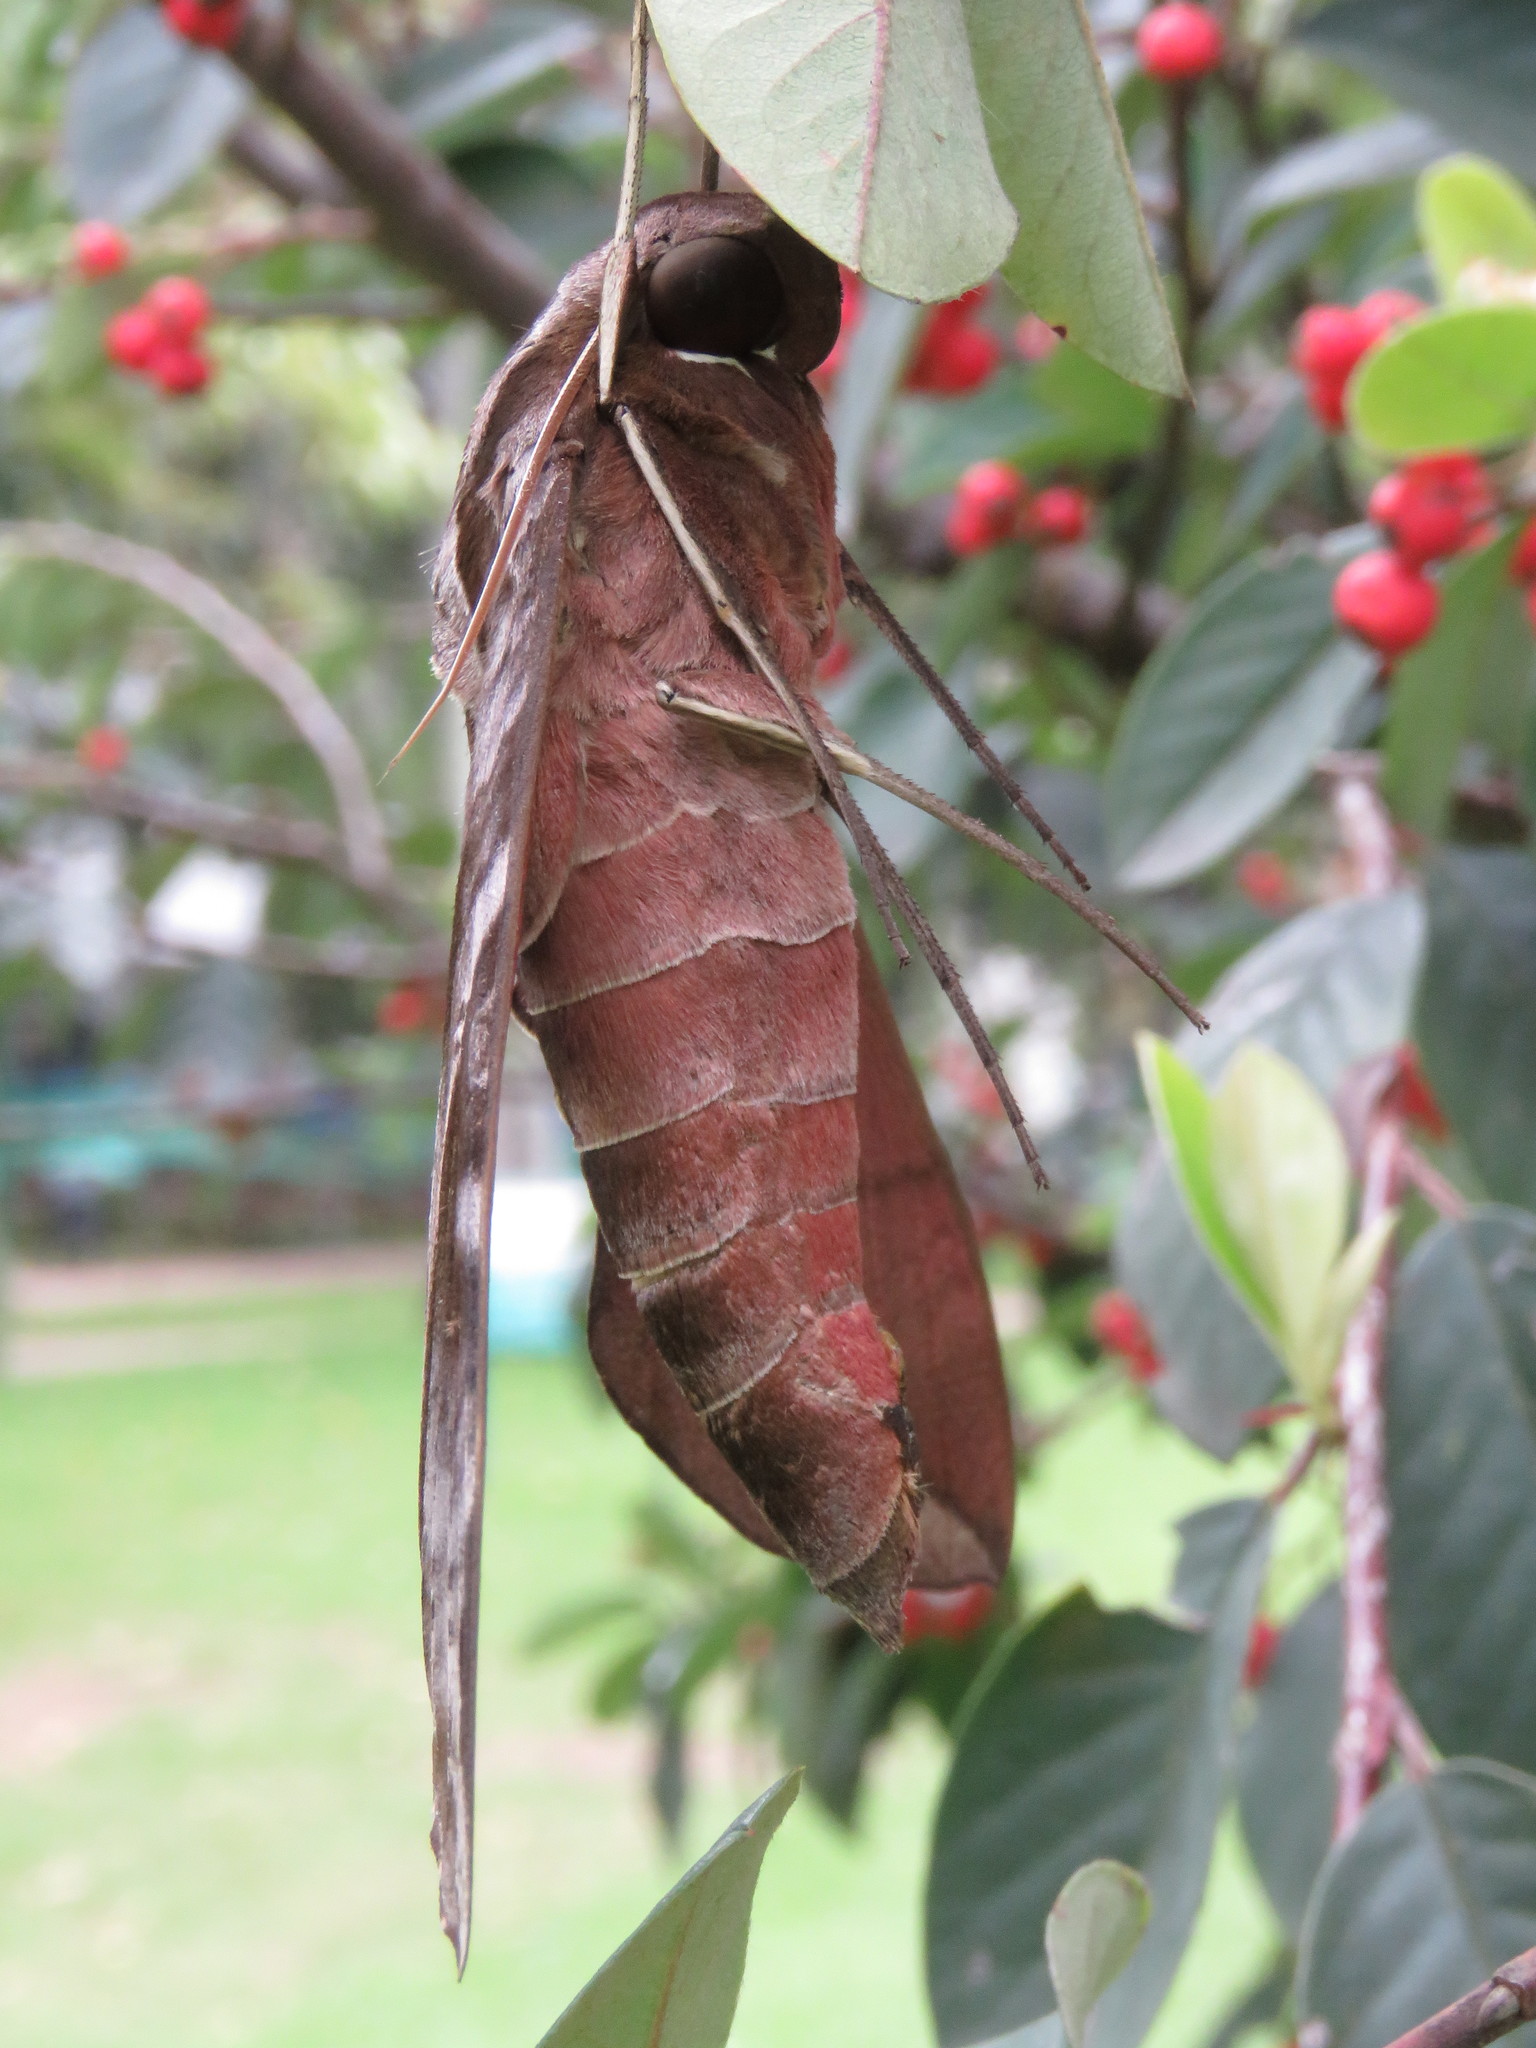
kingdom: Animalia
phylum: Arthropoda
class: Insecta
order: Lepidoptera
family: Sphingidae
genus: Eumorpha
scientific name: Eumorpha anchemolus
